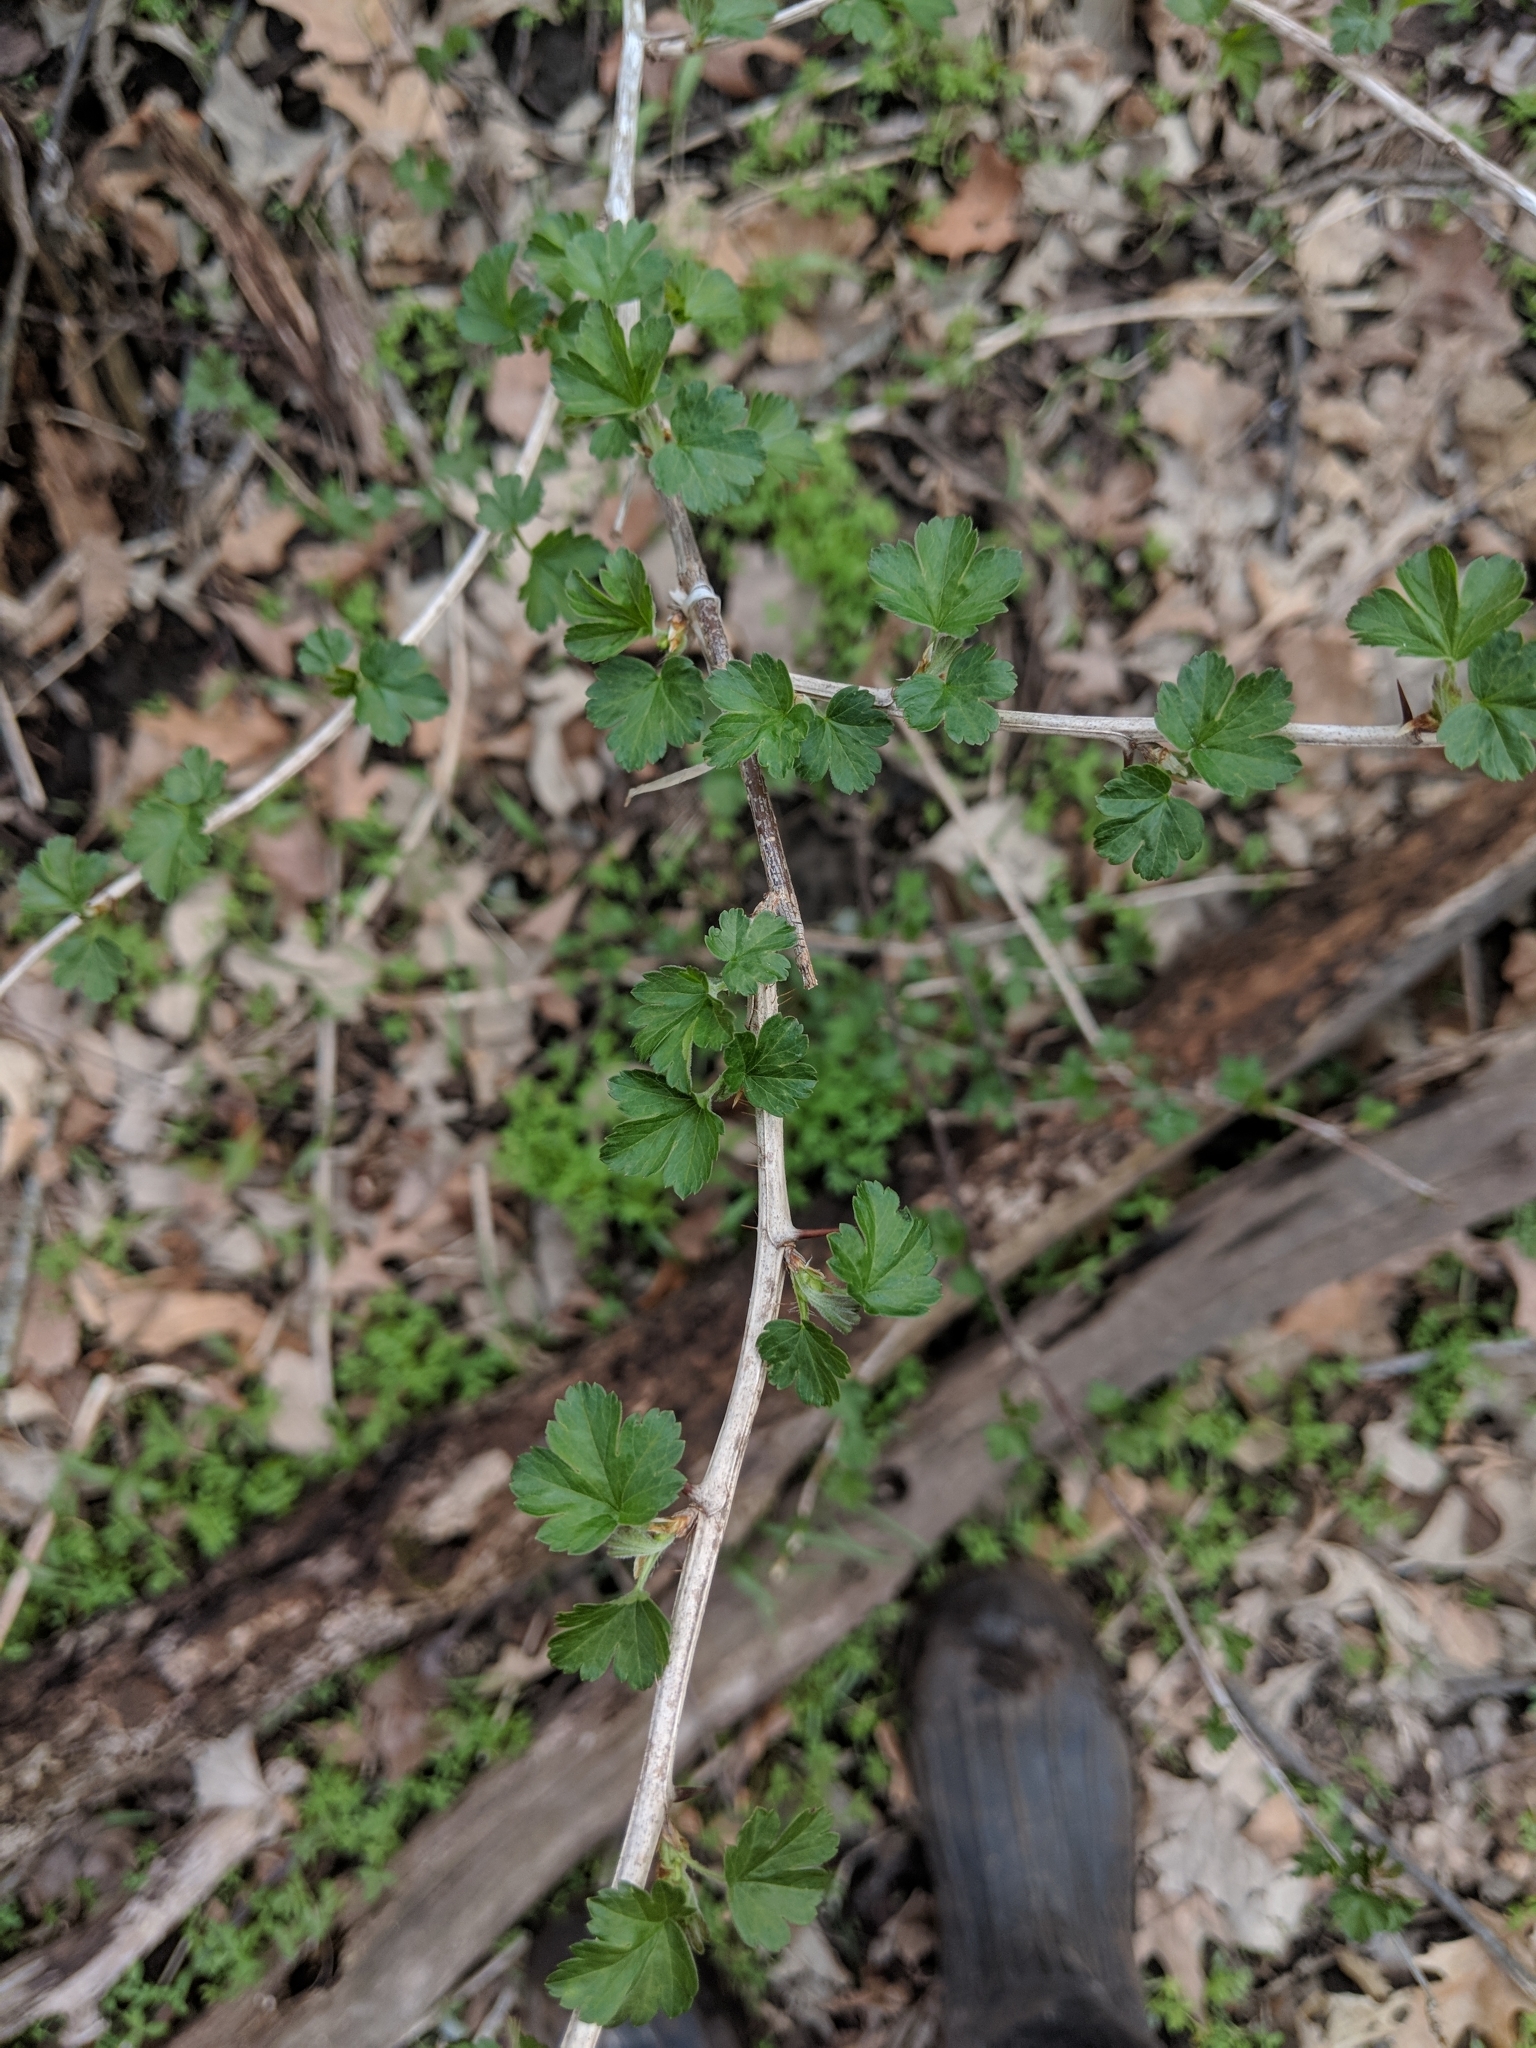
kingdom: Plantae
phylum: Tracheophyta
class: Magnoliopsida
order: Saxifragales
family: Grossulariaceae
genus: Ribes
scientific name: Ribes missouriense
